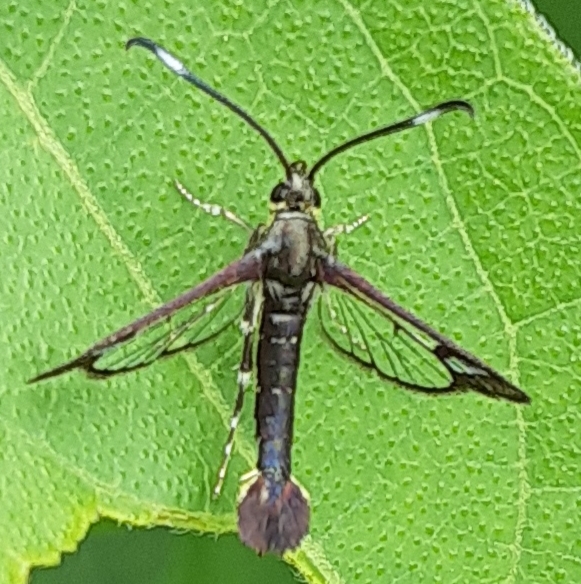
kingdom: Animalia
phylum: Arthropoda
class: Insecta
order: Lepidoptera
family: Sesiidae
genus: Carmenta
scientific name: Carmenta ithacae
